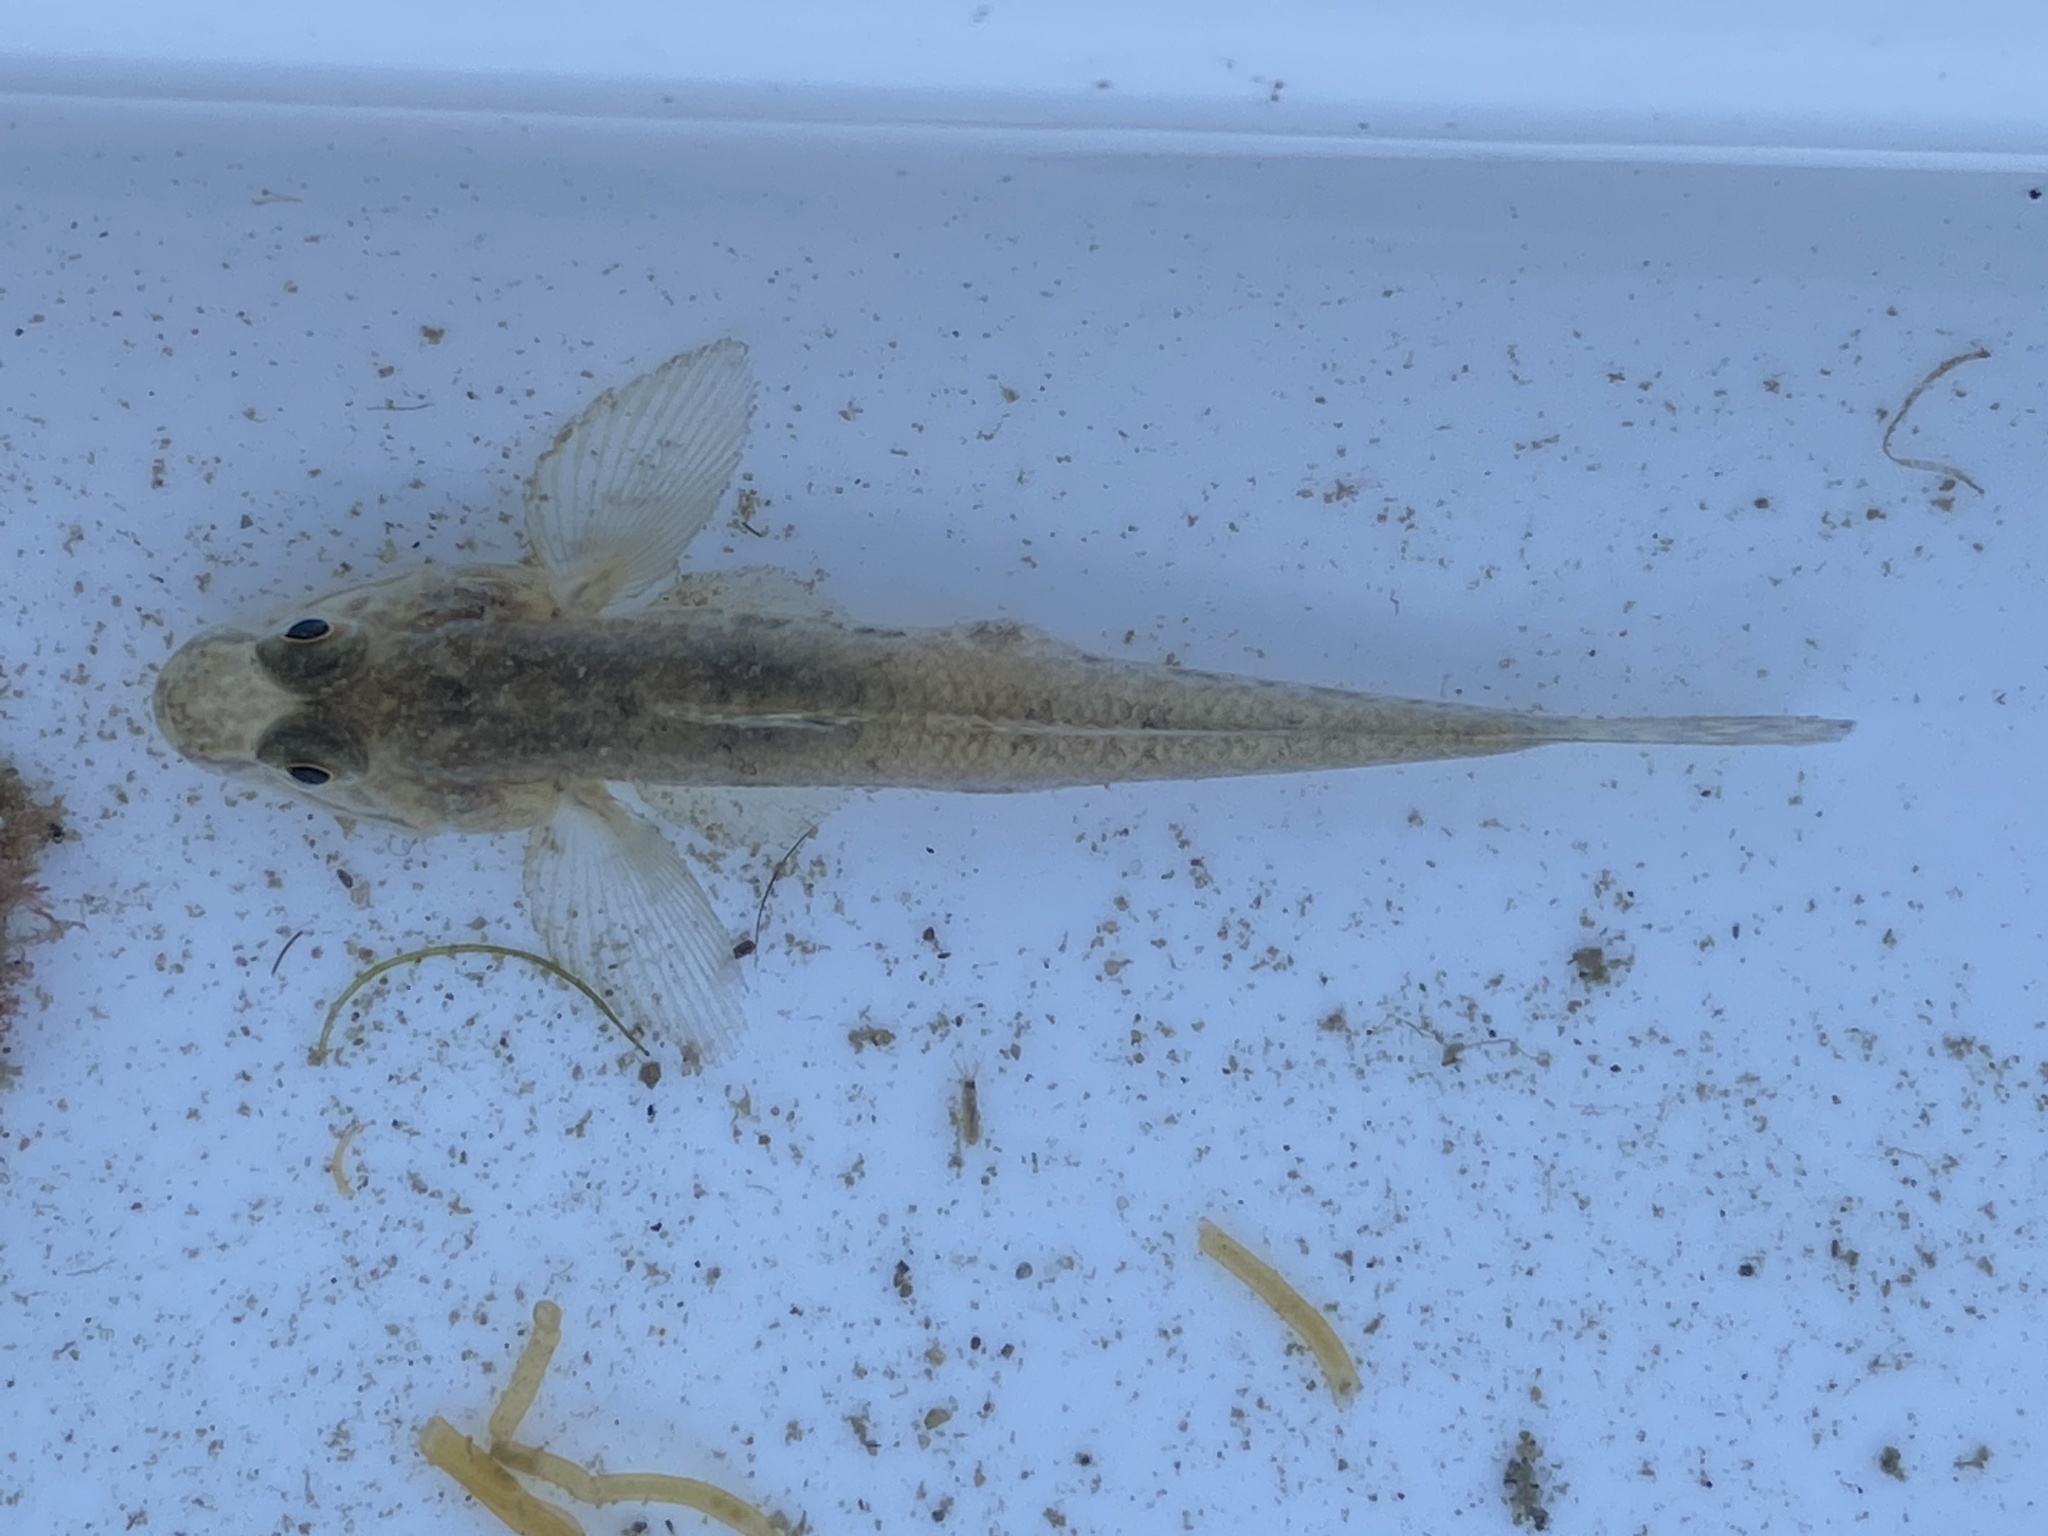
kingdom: Animalia
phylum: Chordata
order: Perciformes
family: Gobiidae
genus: Acanthogobius
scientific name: Acanthogobius flavimanus
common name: Yellowfin goby
